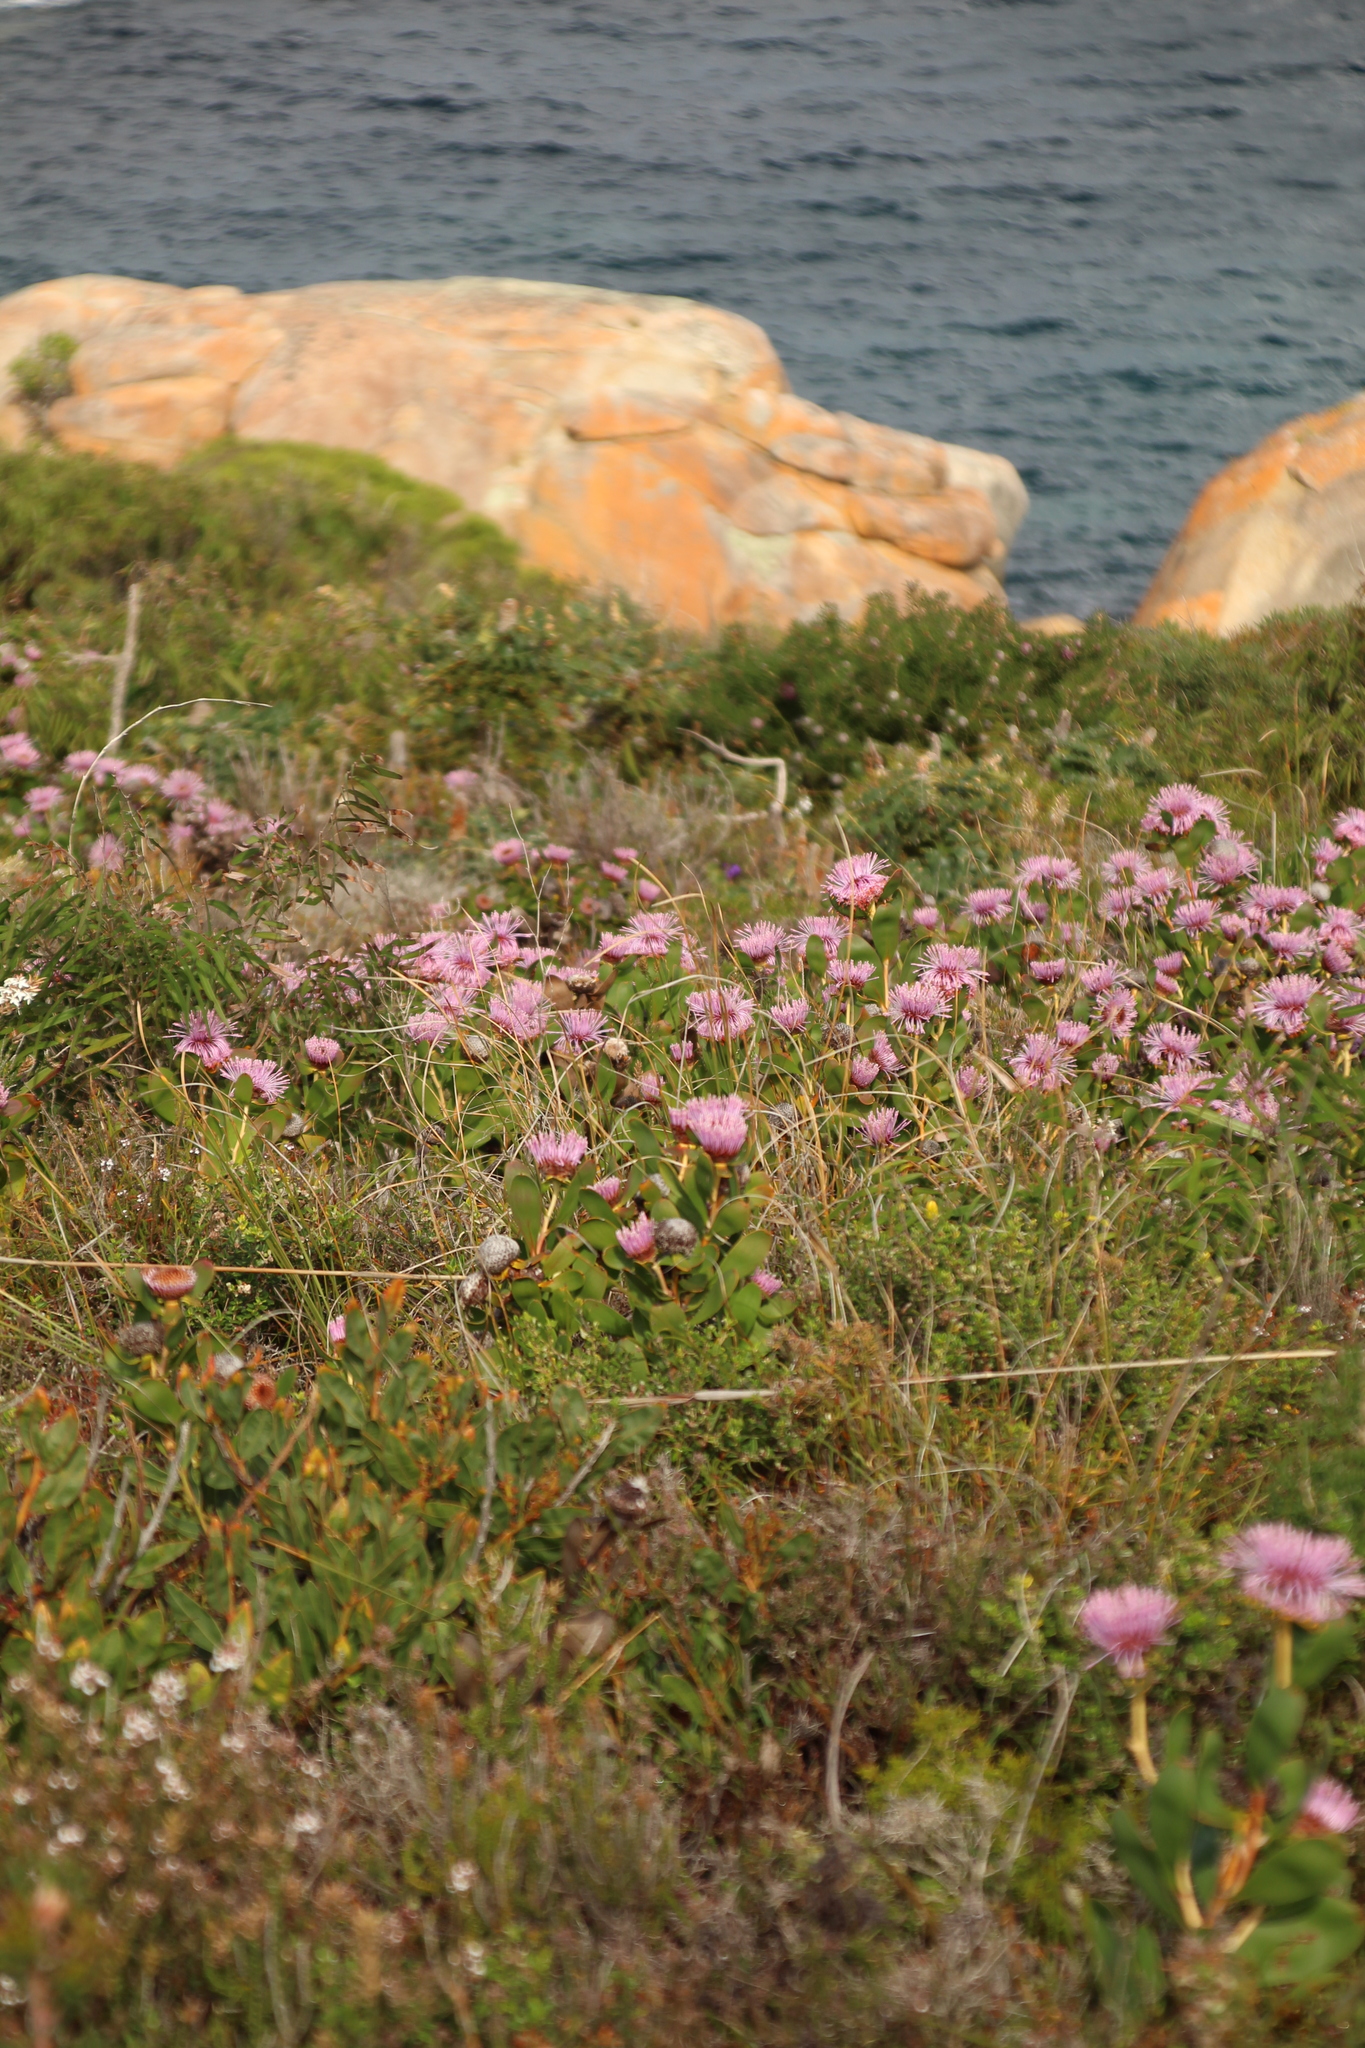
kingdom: Plantae
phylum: Tracheophyta
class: Magnoliopsida
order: Proteales
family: Proteaceae
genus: Isopogon
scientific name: Isopogon cuneatus
